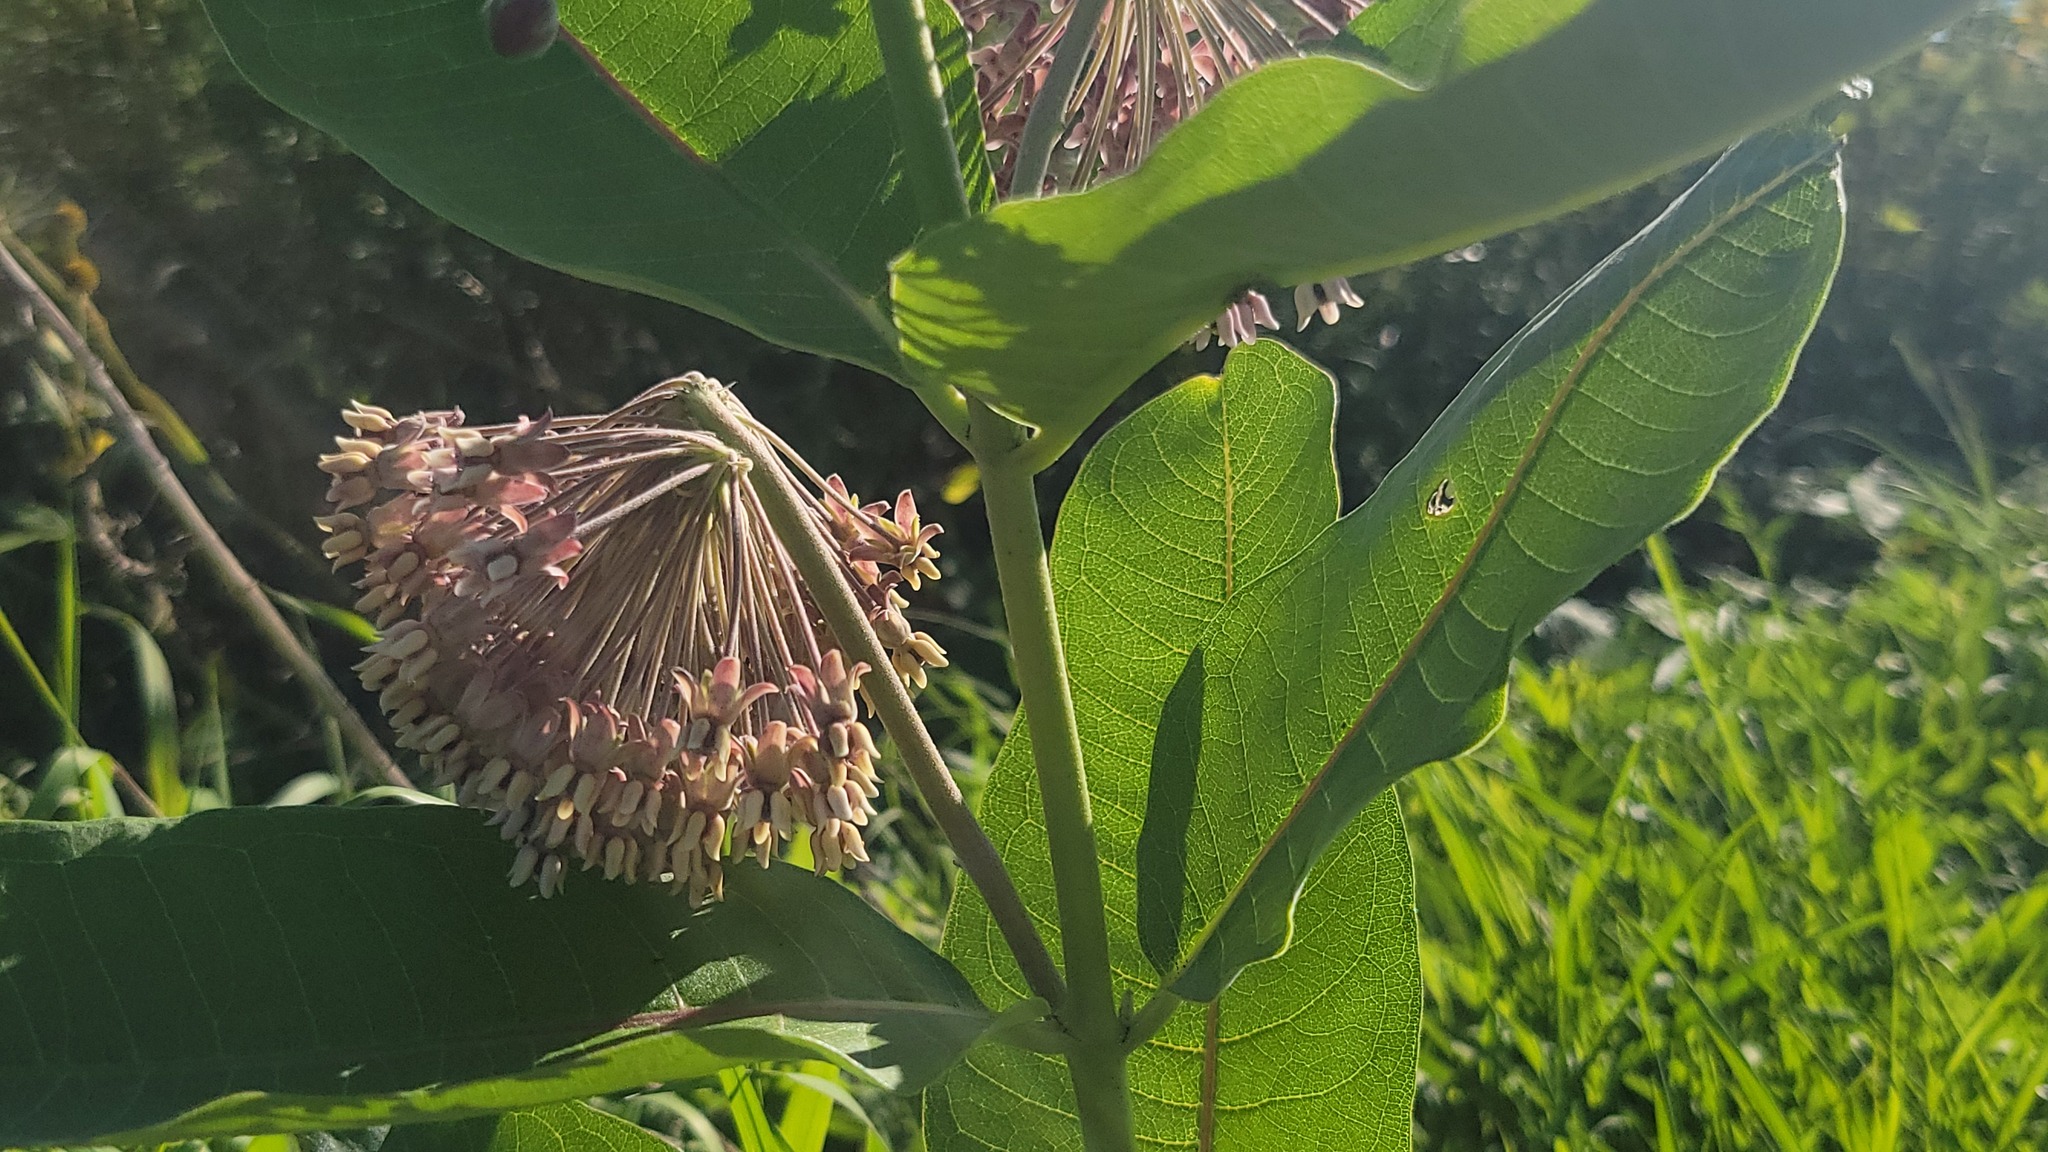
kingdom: Plantae
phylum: Tracheophyta
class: Magnoliopsida
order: Gentianales
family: Apocynaceae
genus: Asclepias
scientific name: Asclepias syriaca
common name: Common milkweed
